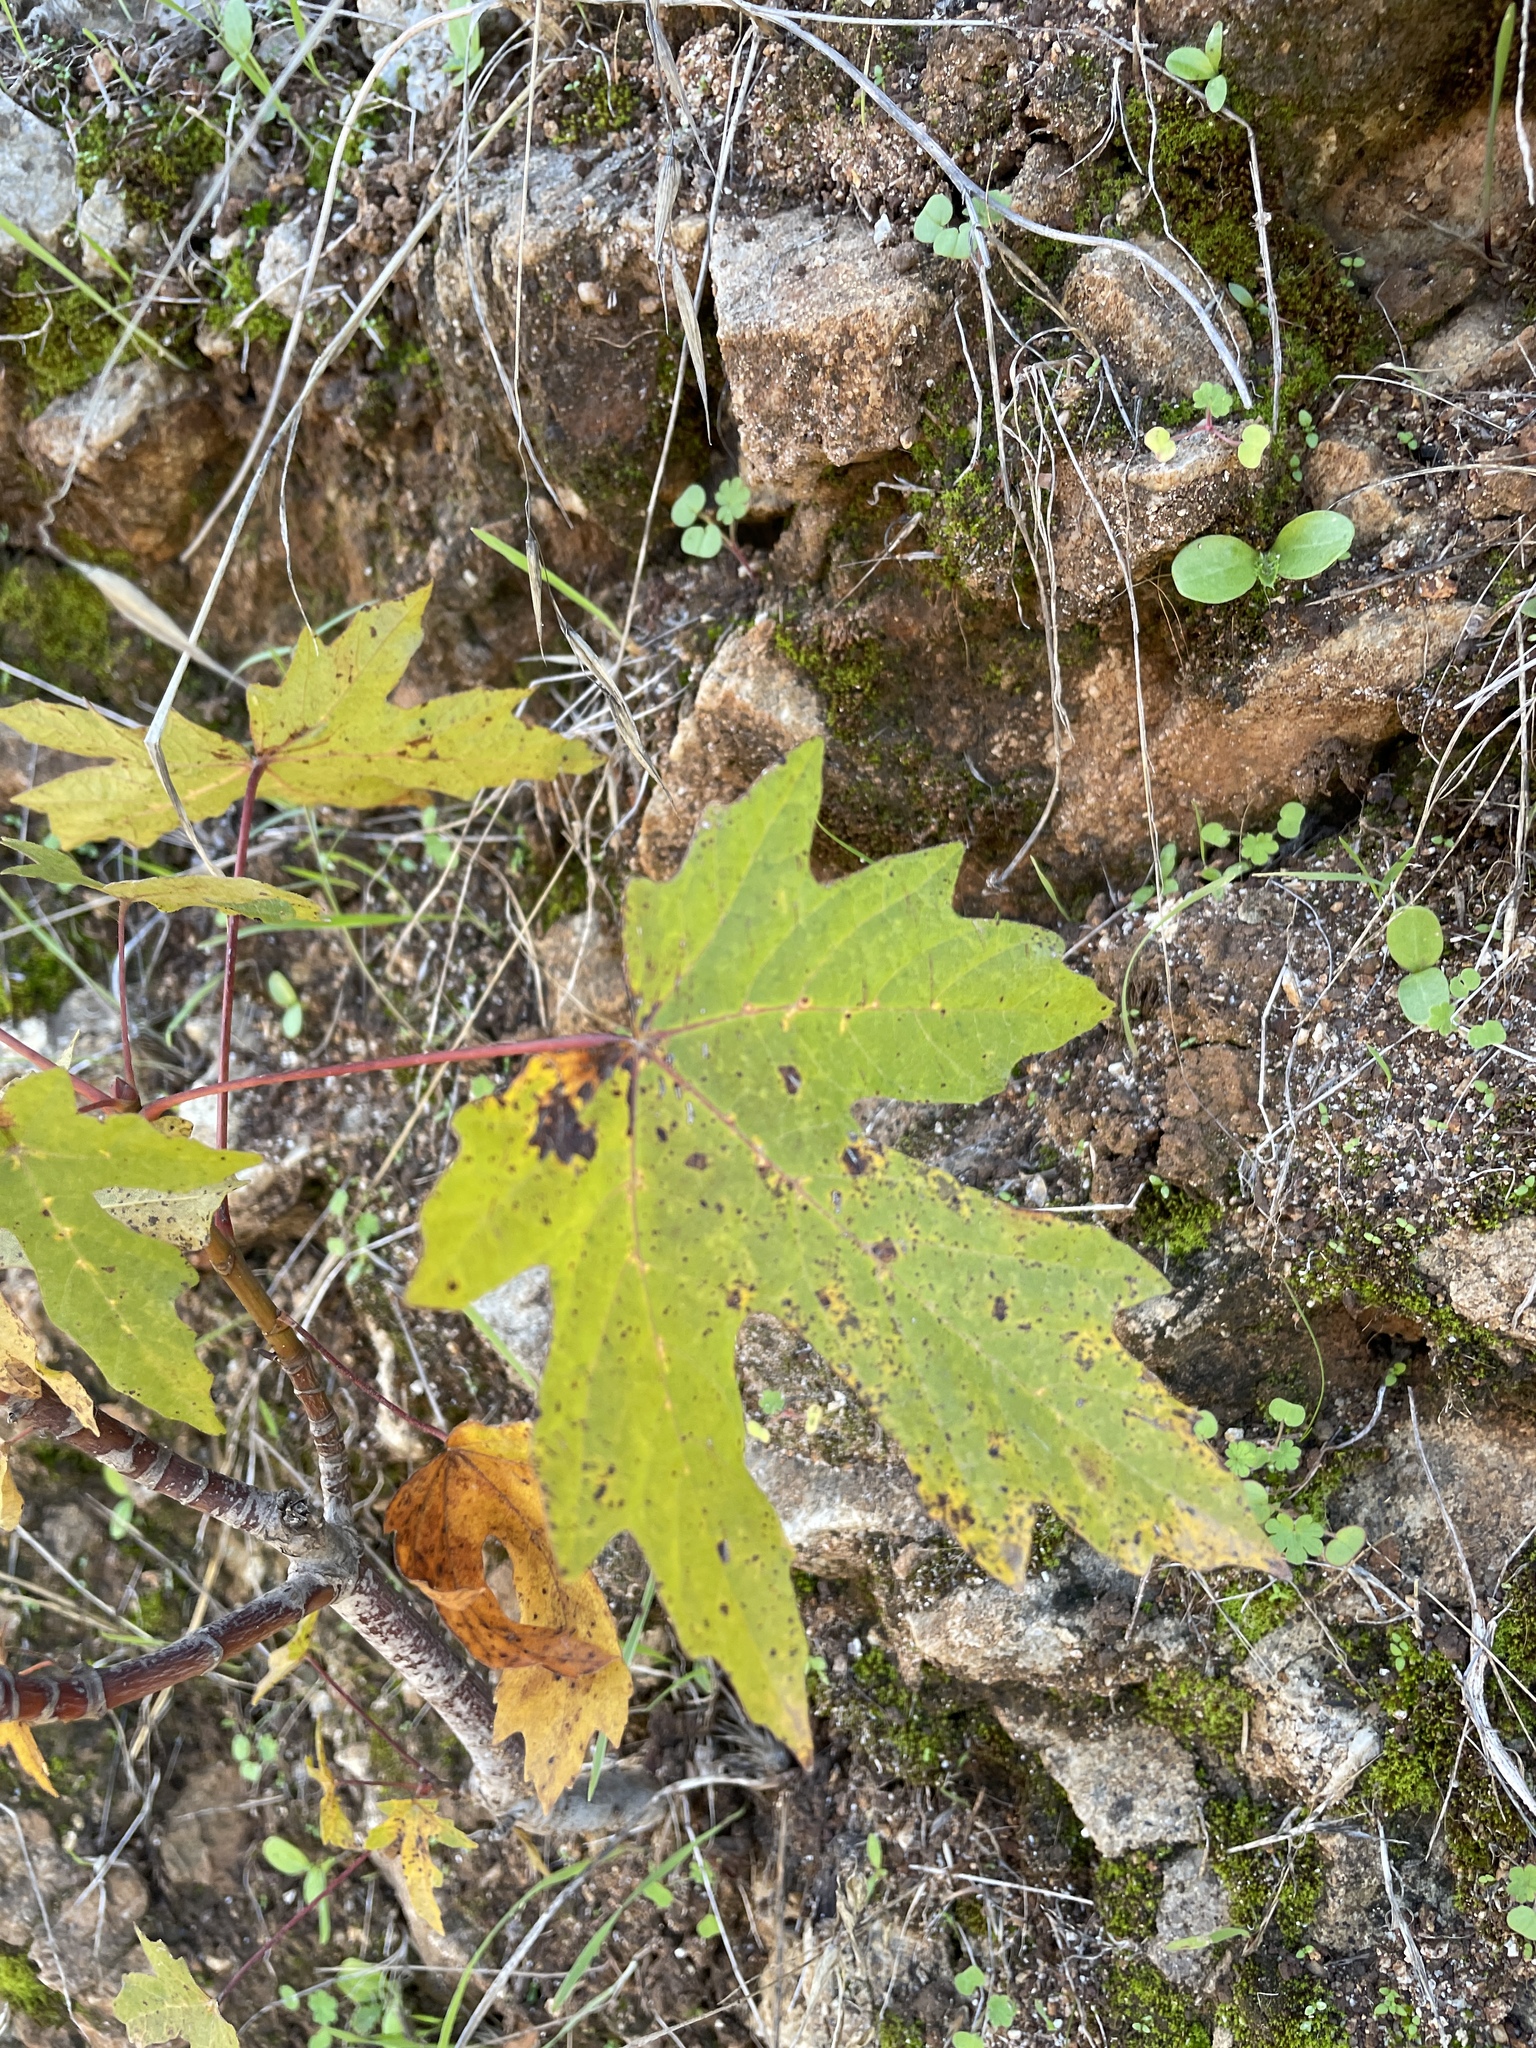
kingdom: Plantae
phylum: Tracheophyta
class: Magnoliopsida
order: Sapindales
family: Sapindaceae
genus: Acer
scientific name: Acer macrophyllum
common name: Oregon maple
